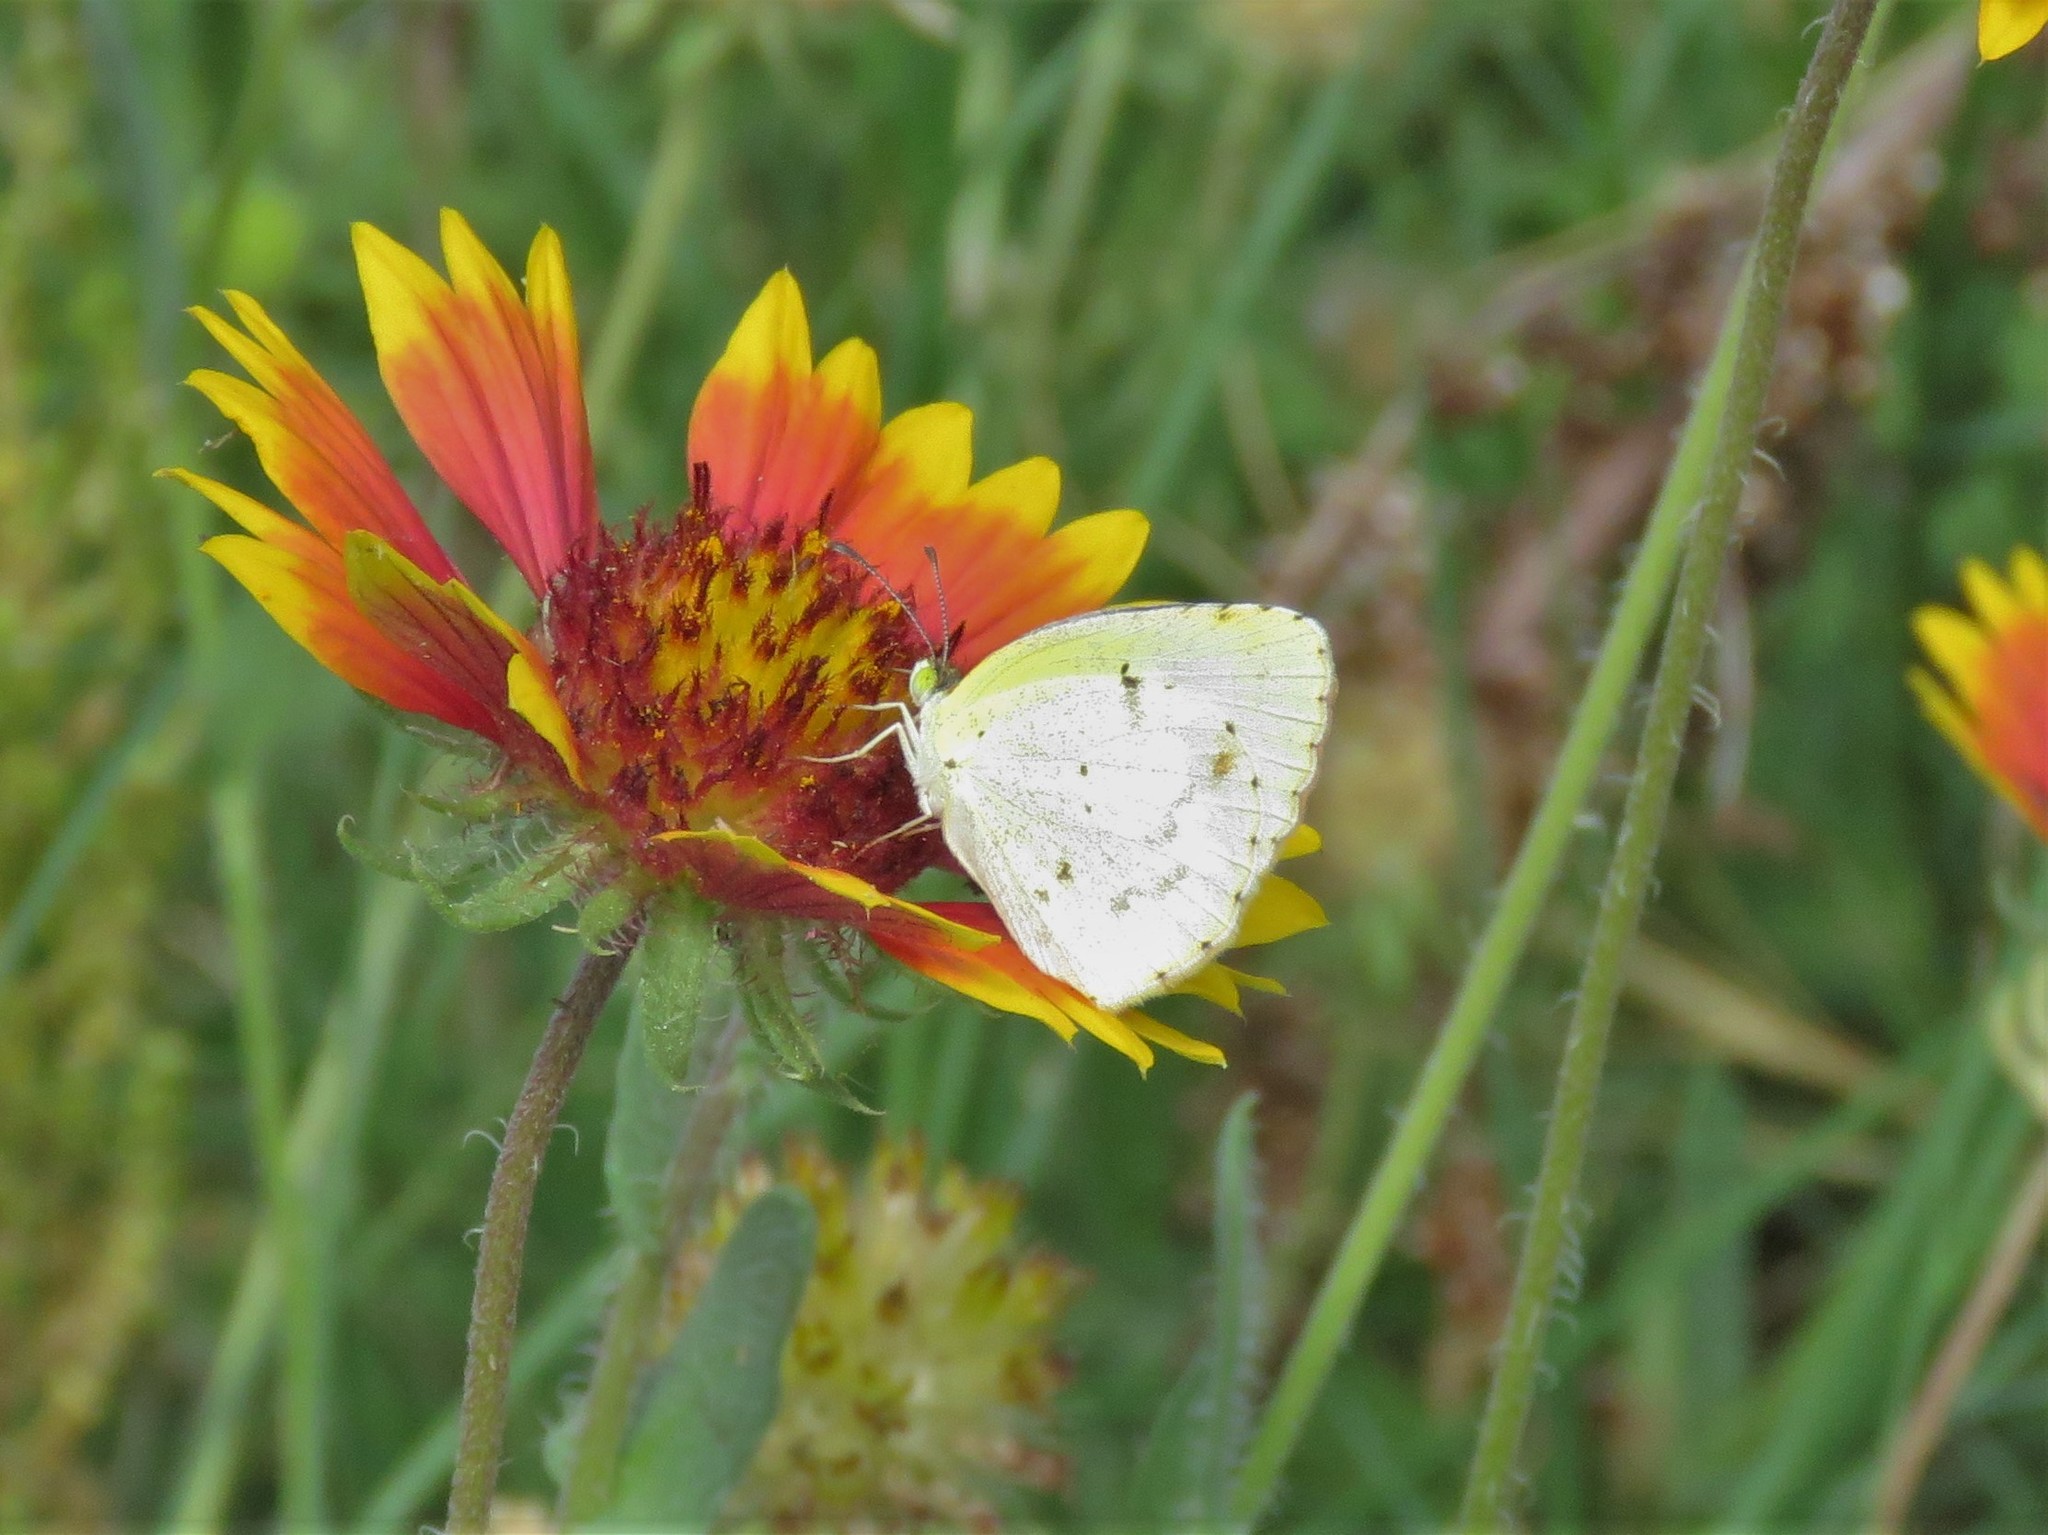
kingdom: Animalia
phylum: Arthropoda
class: Insecta
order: Lepidoptera
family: Pieridae
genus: Pyrisitia
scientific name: Pyrisitia lisa
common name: Little yellow
